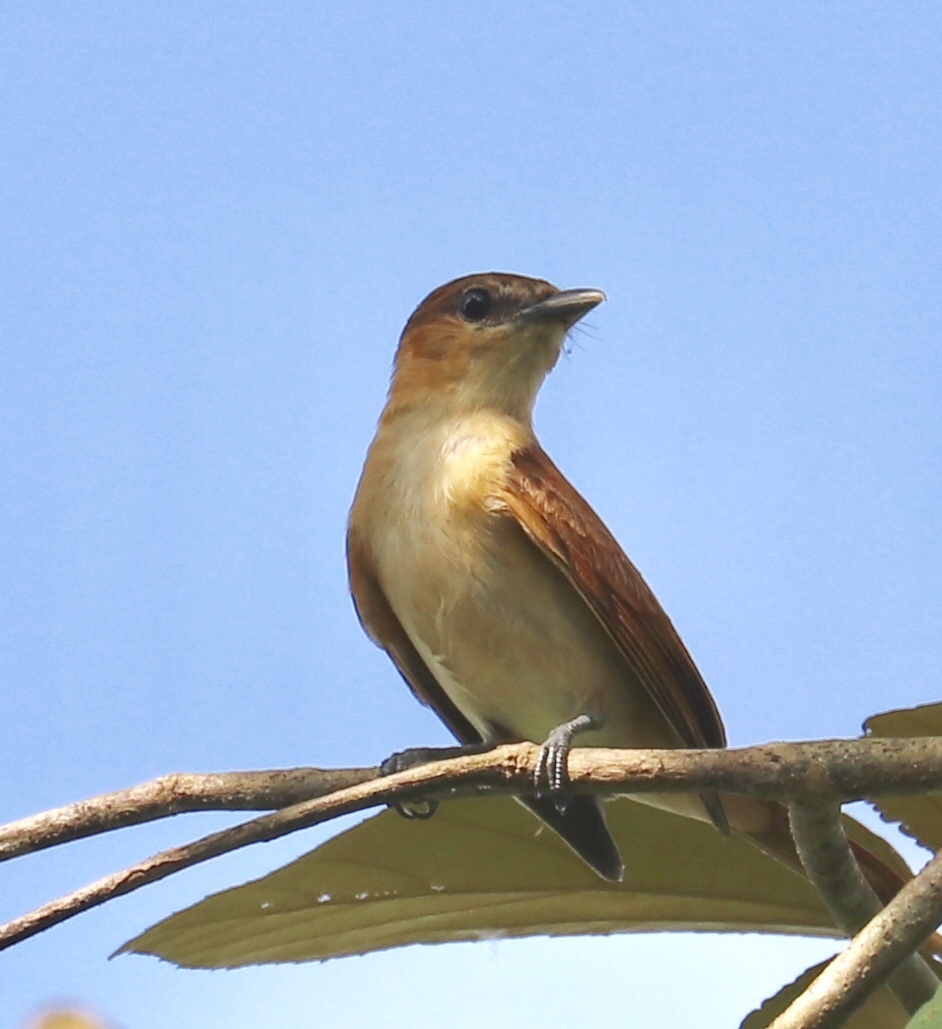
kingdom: Animalia
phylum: Chordata
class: Aves
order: Passeriformes
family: Cotingidae
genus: Pachyramphus
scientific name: Pachyramphus cinnamomeus
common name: Cinnamon becard
